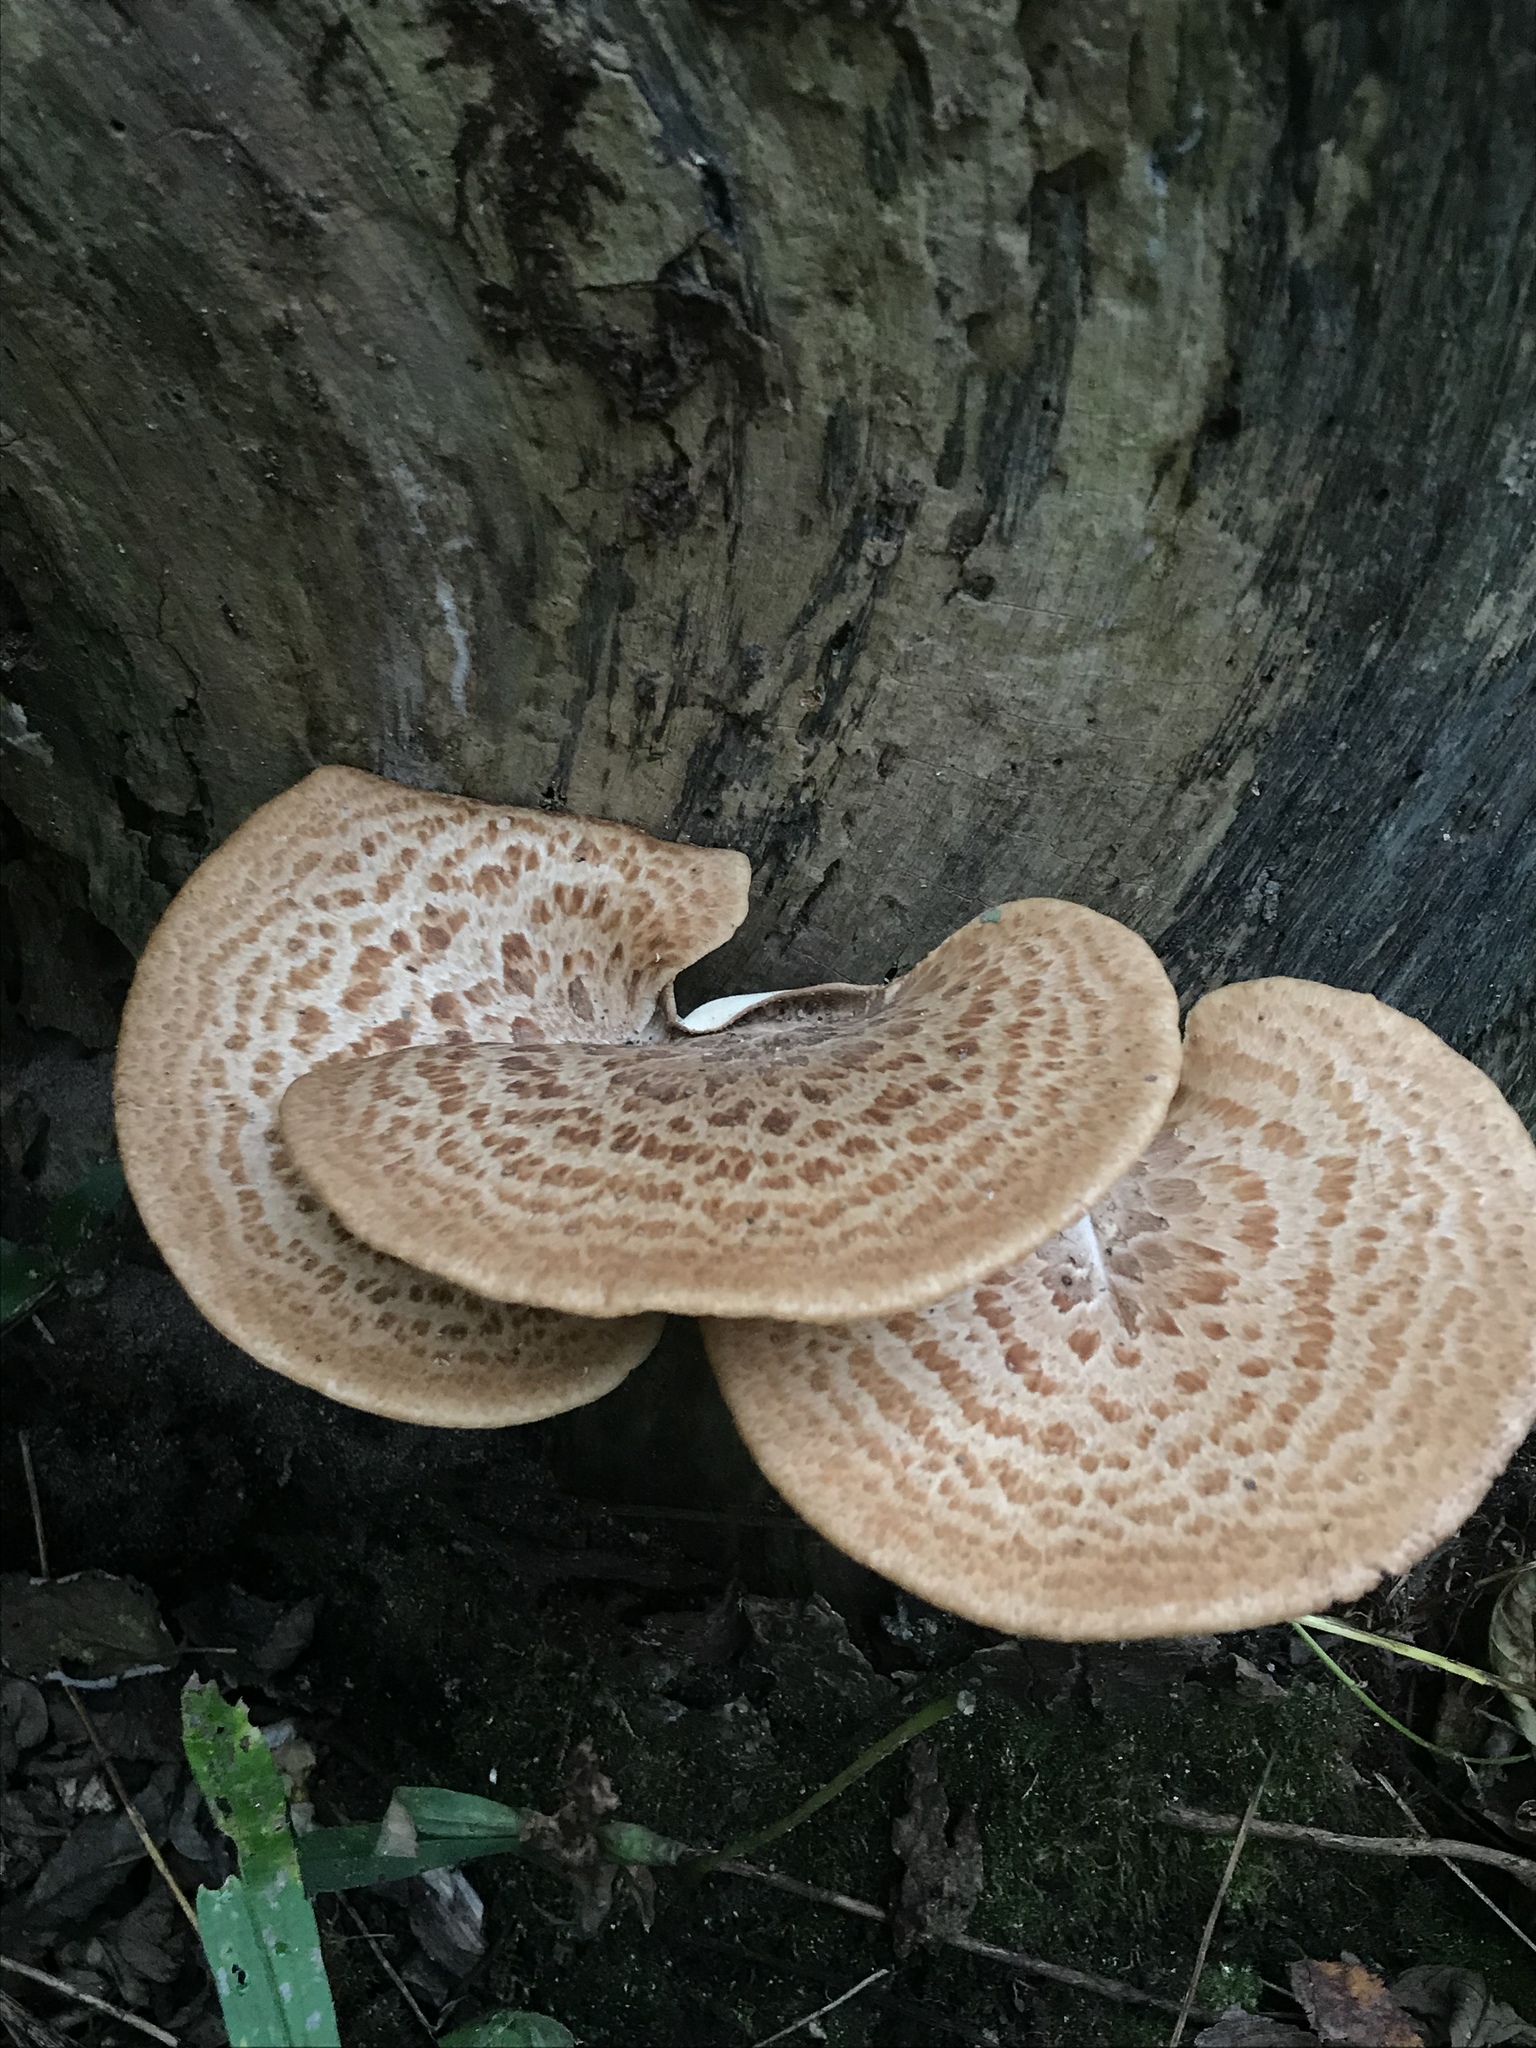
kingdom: Fungi
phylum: Basidiomycota
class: Agaricomycetes
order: Polyporales
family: Polyporaceae
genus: Cerioporus
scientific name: Cerioporus squamosus
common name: Dryad's saddle
